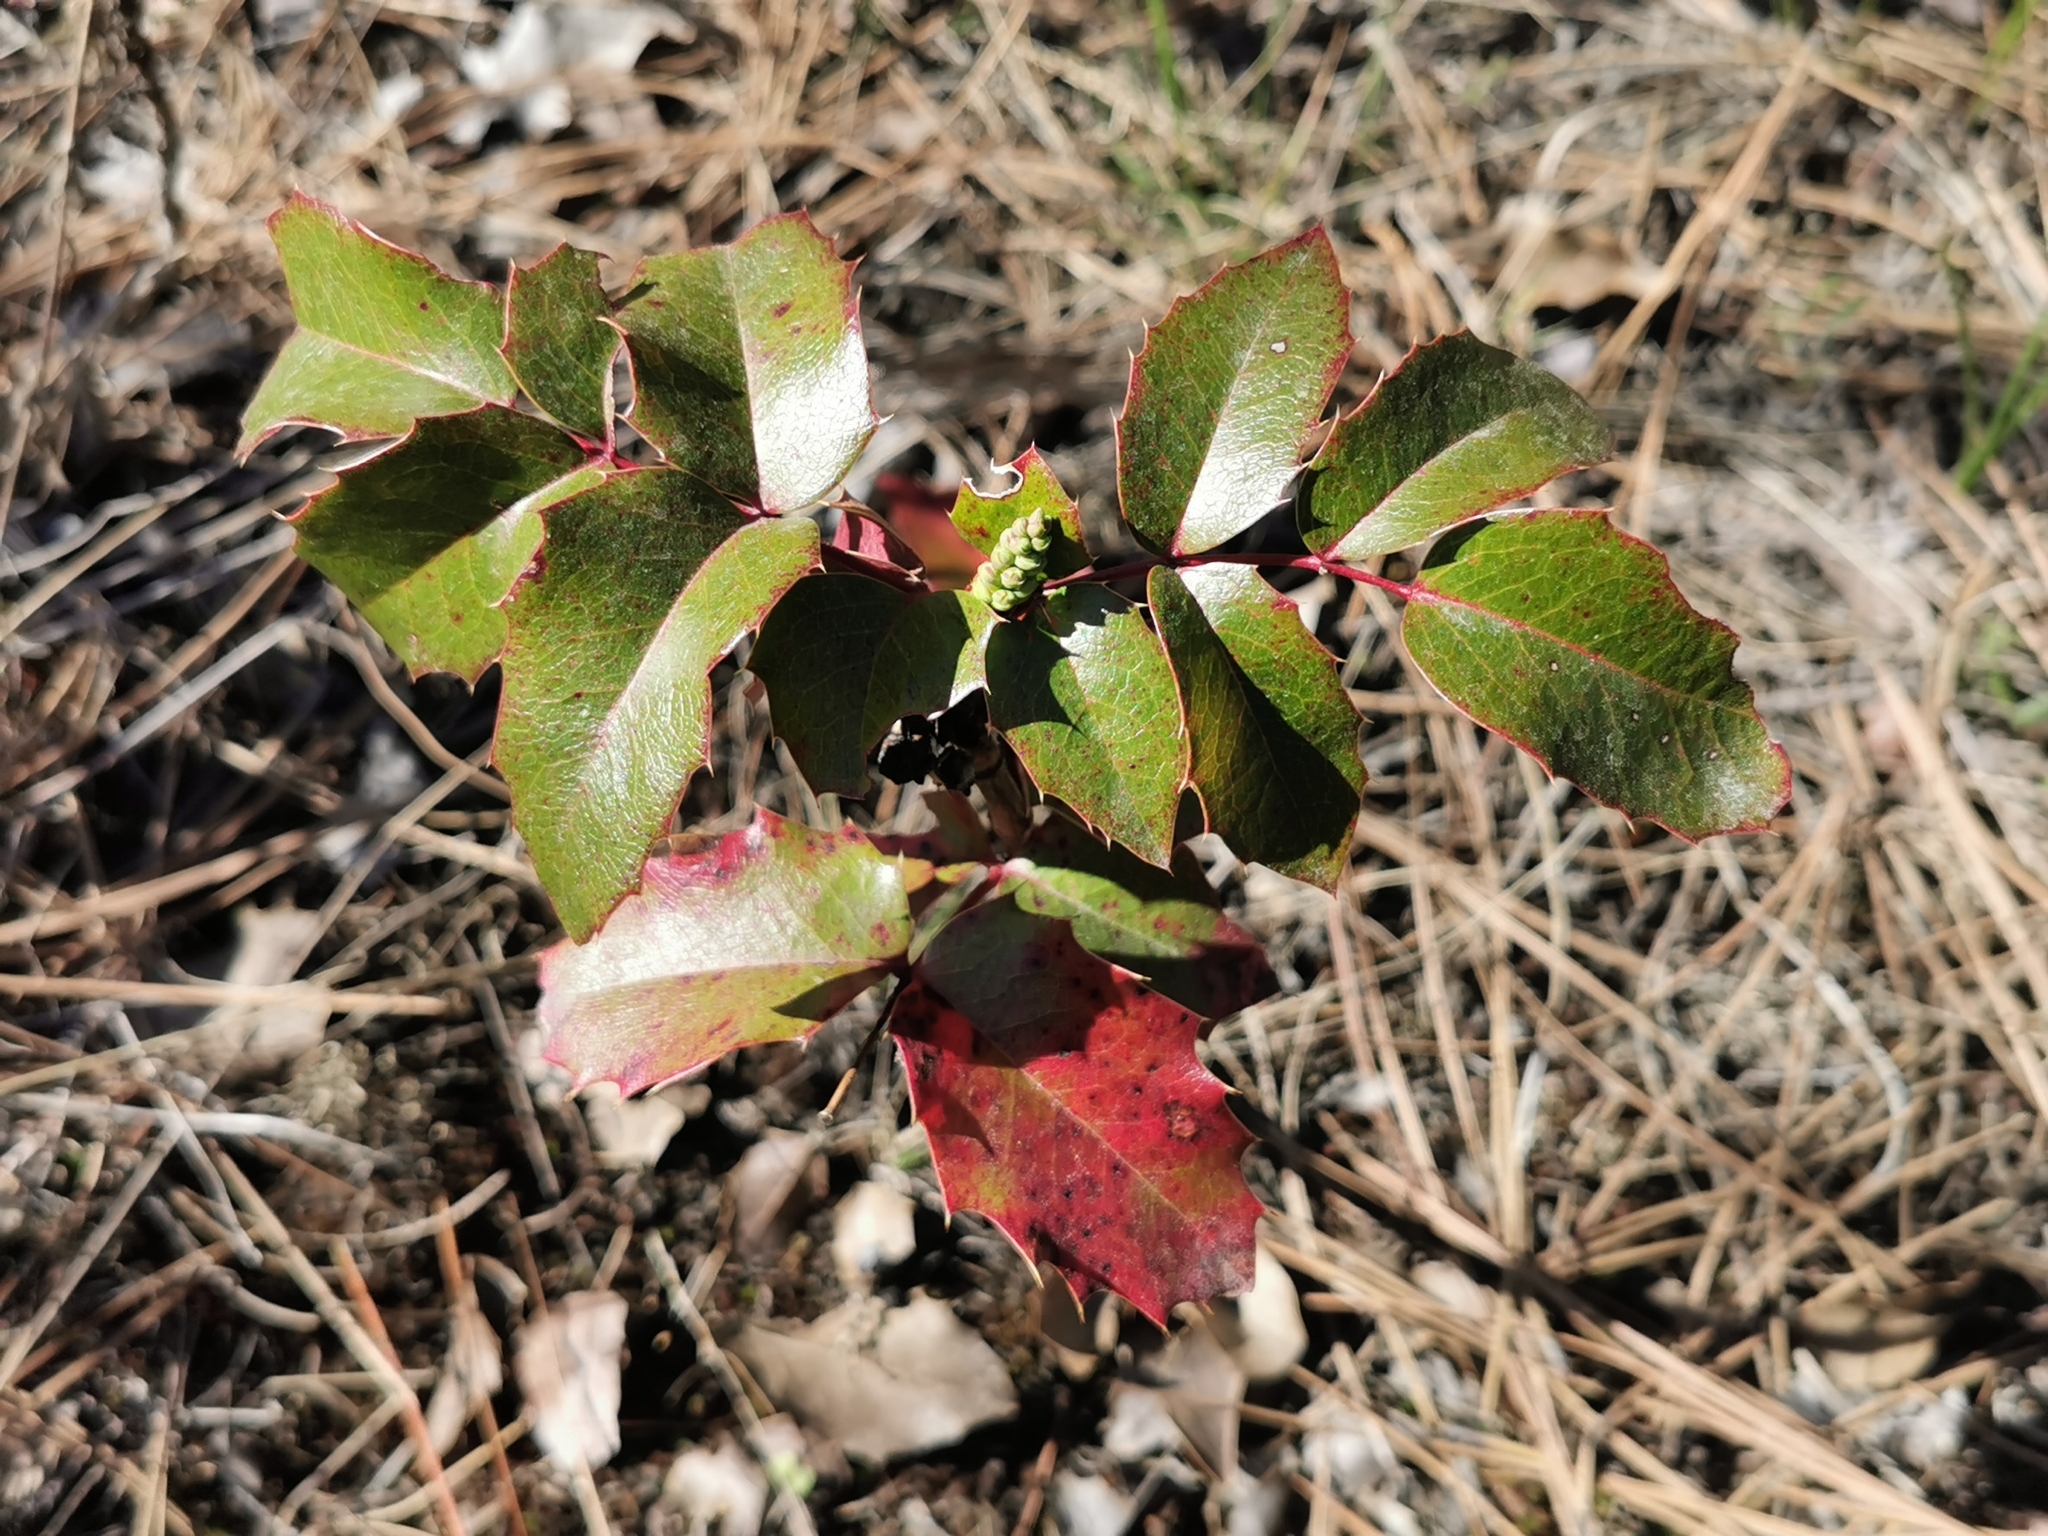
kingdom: Plantae
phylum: Tracheophyta
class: Magnoliopsida
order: Ranunculales
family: Berberidaceae
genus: Mahonia
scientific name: Mahonia aquifolium
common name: Oregon-grape
